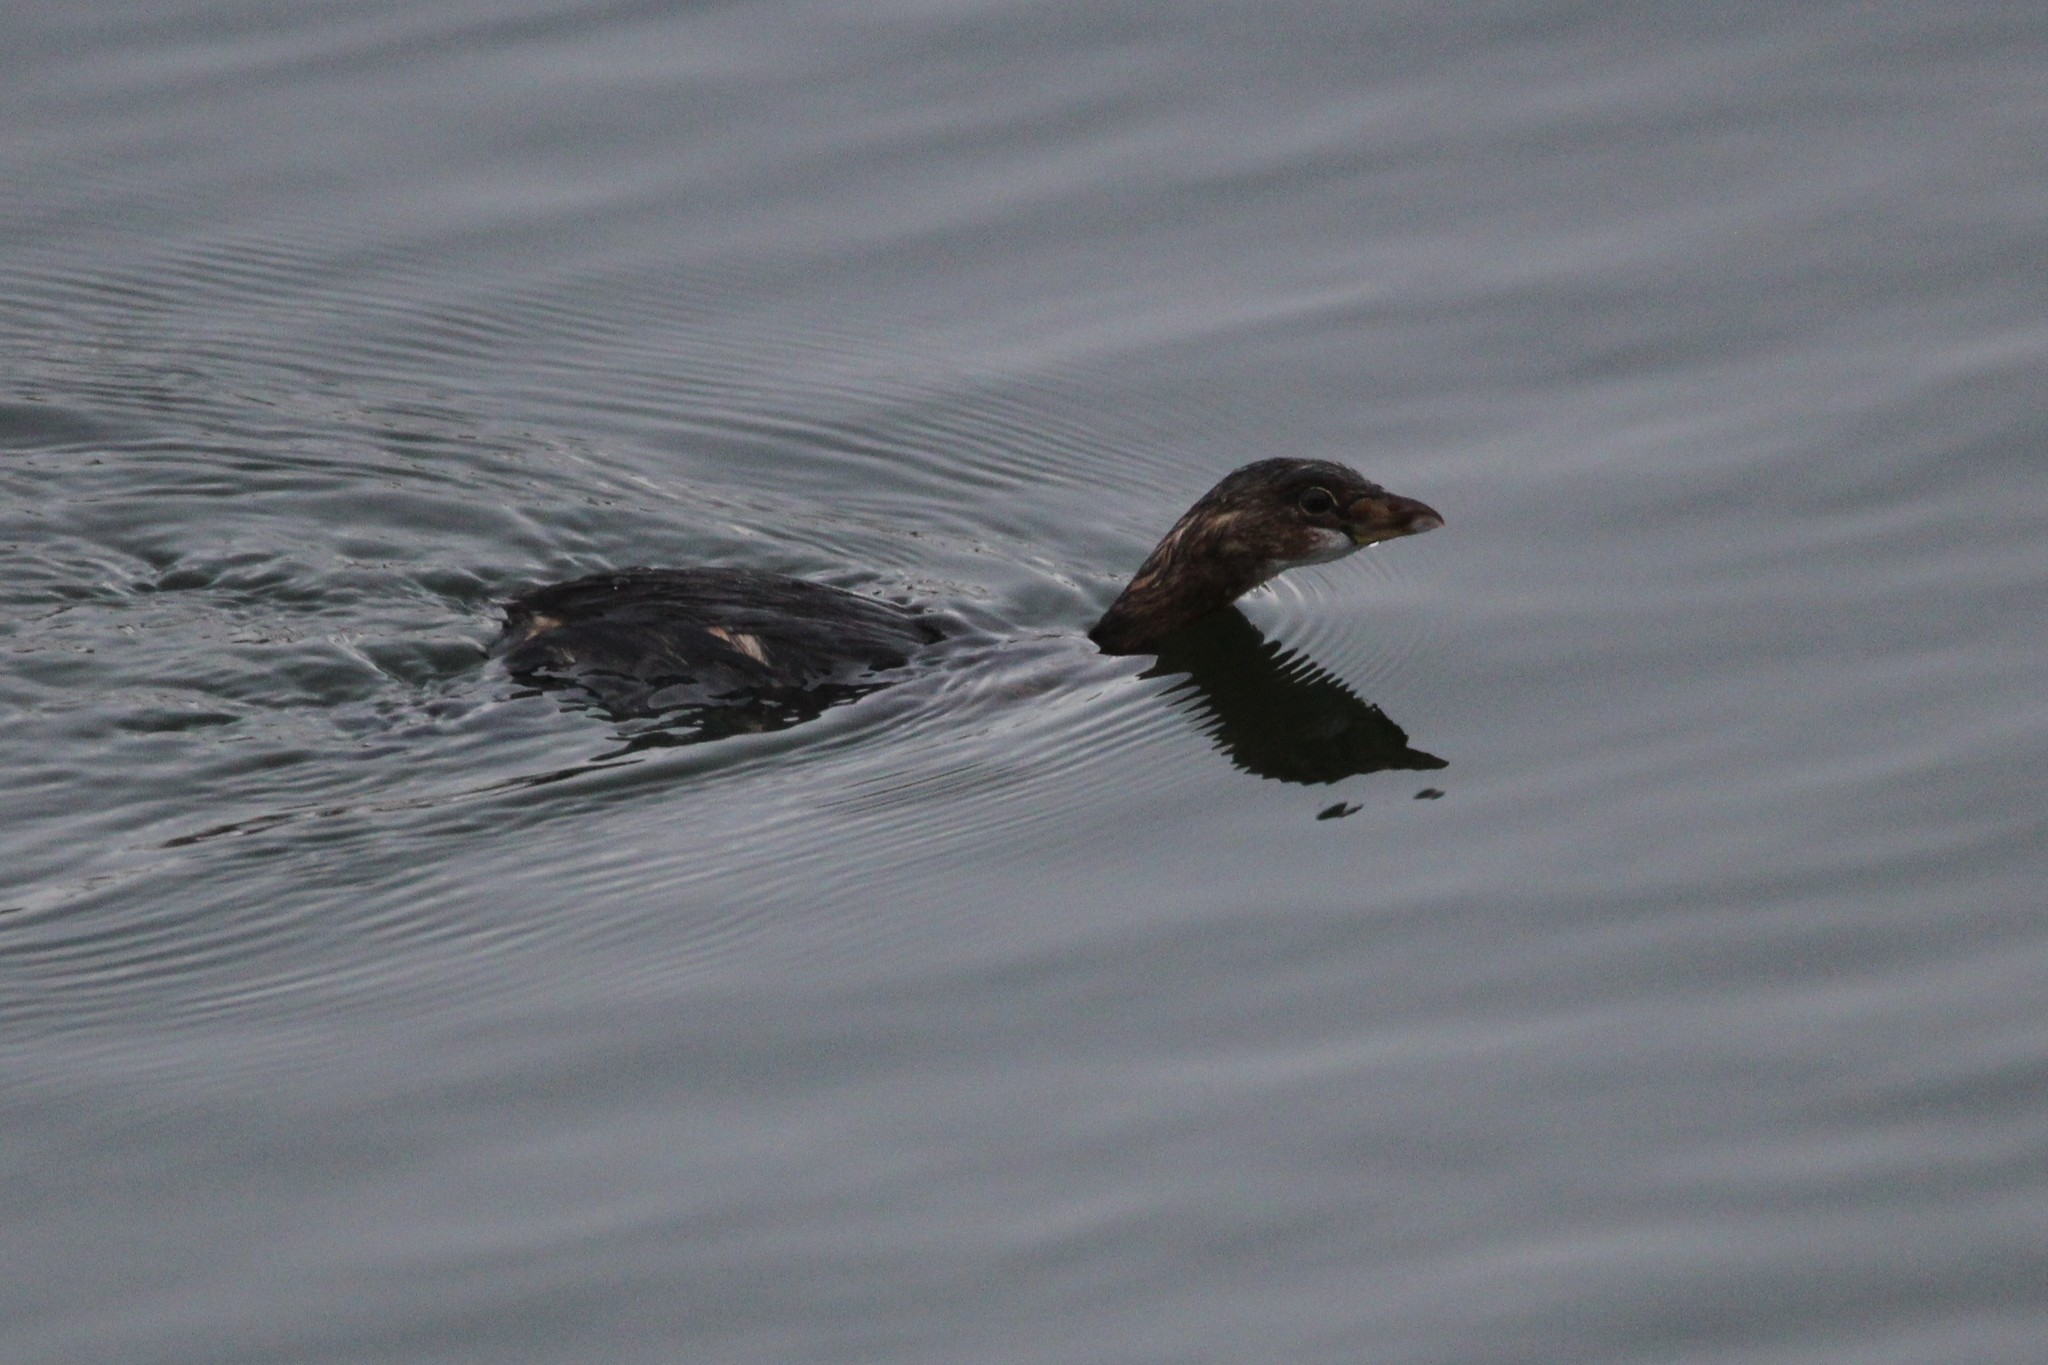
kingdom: Animalia
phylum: Chordata
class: Aves
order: Podicipediformes
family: Podicipedidae
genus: Podilymbus
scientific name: Podilymbus podiceps
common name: Pied-billed grebe
